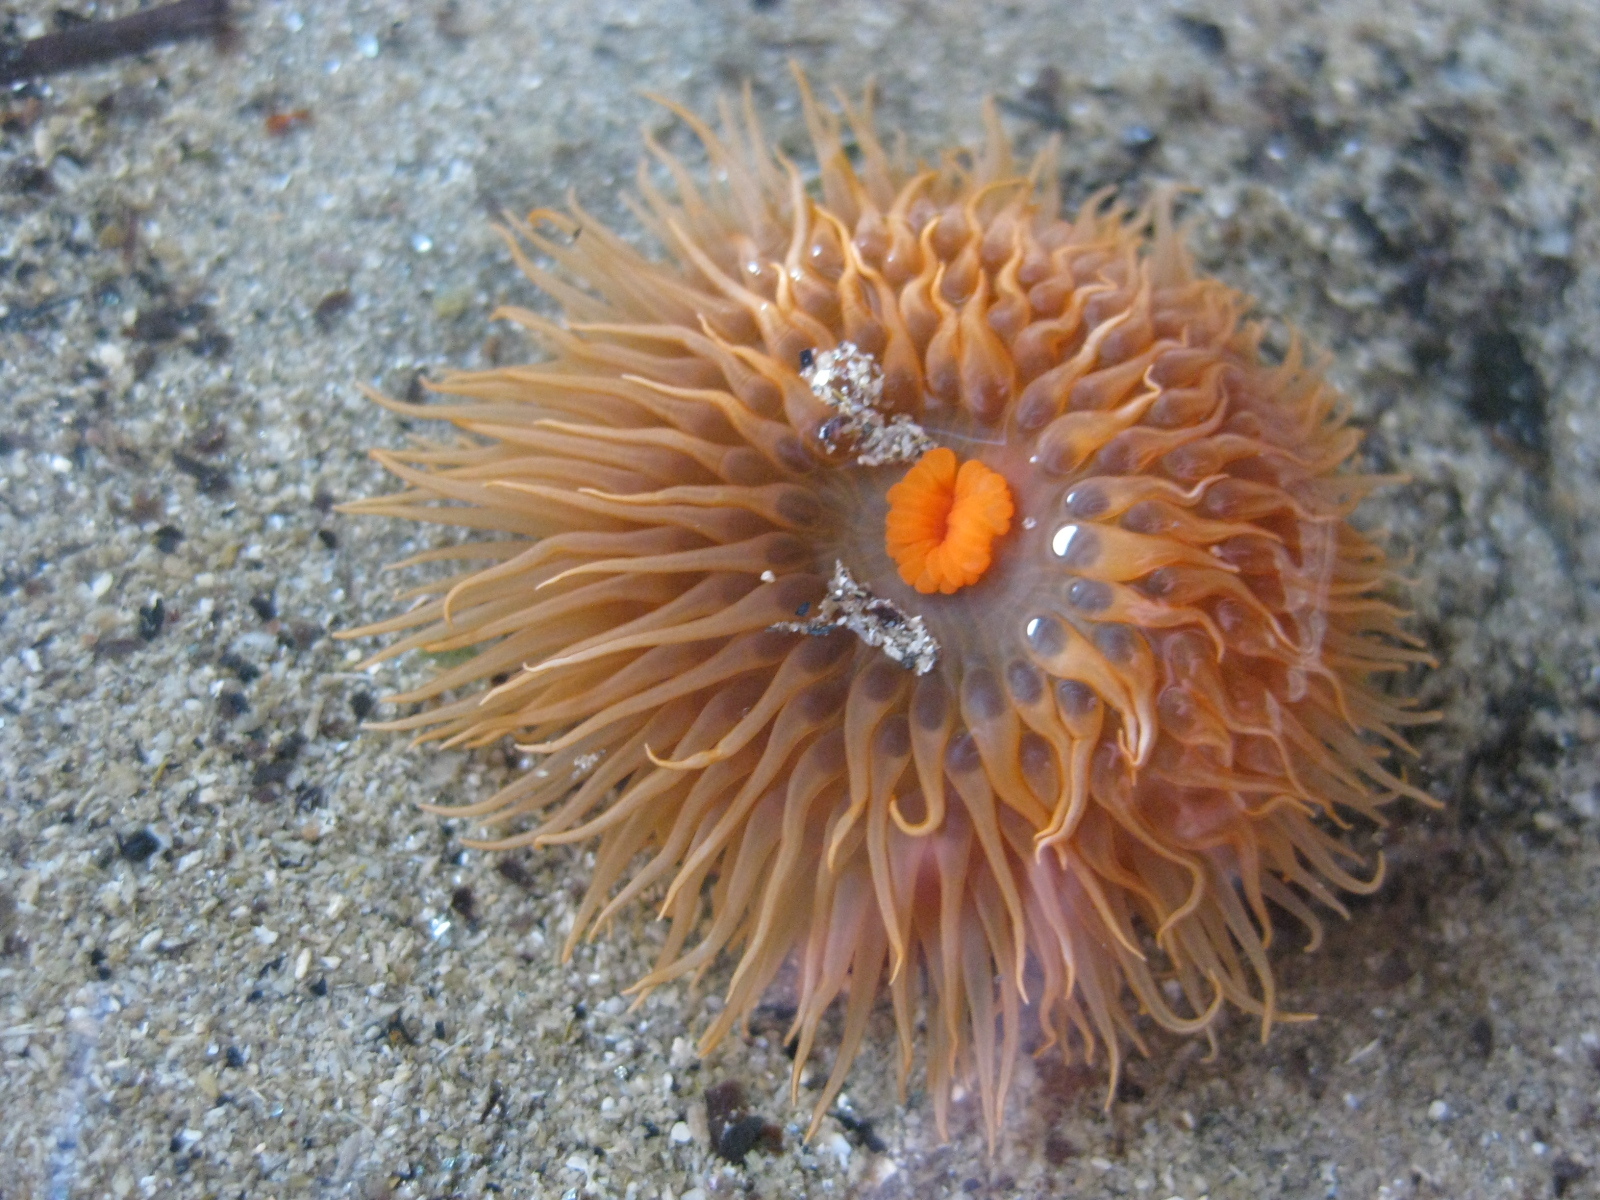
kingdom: Animalia
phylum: Cnidaria
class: Anthozoa
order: Actiniaria
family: Diadumenidae
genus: Diadumene
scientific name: Diadumene neozelanica
